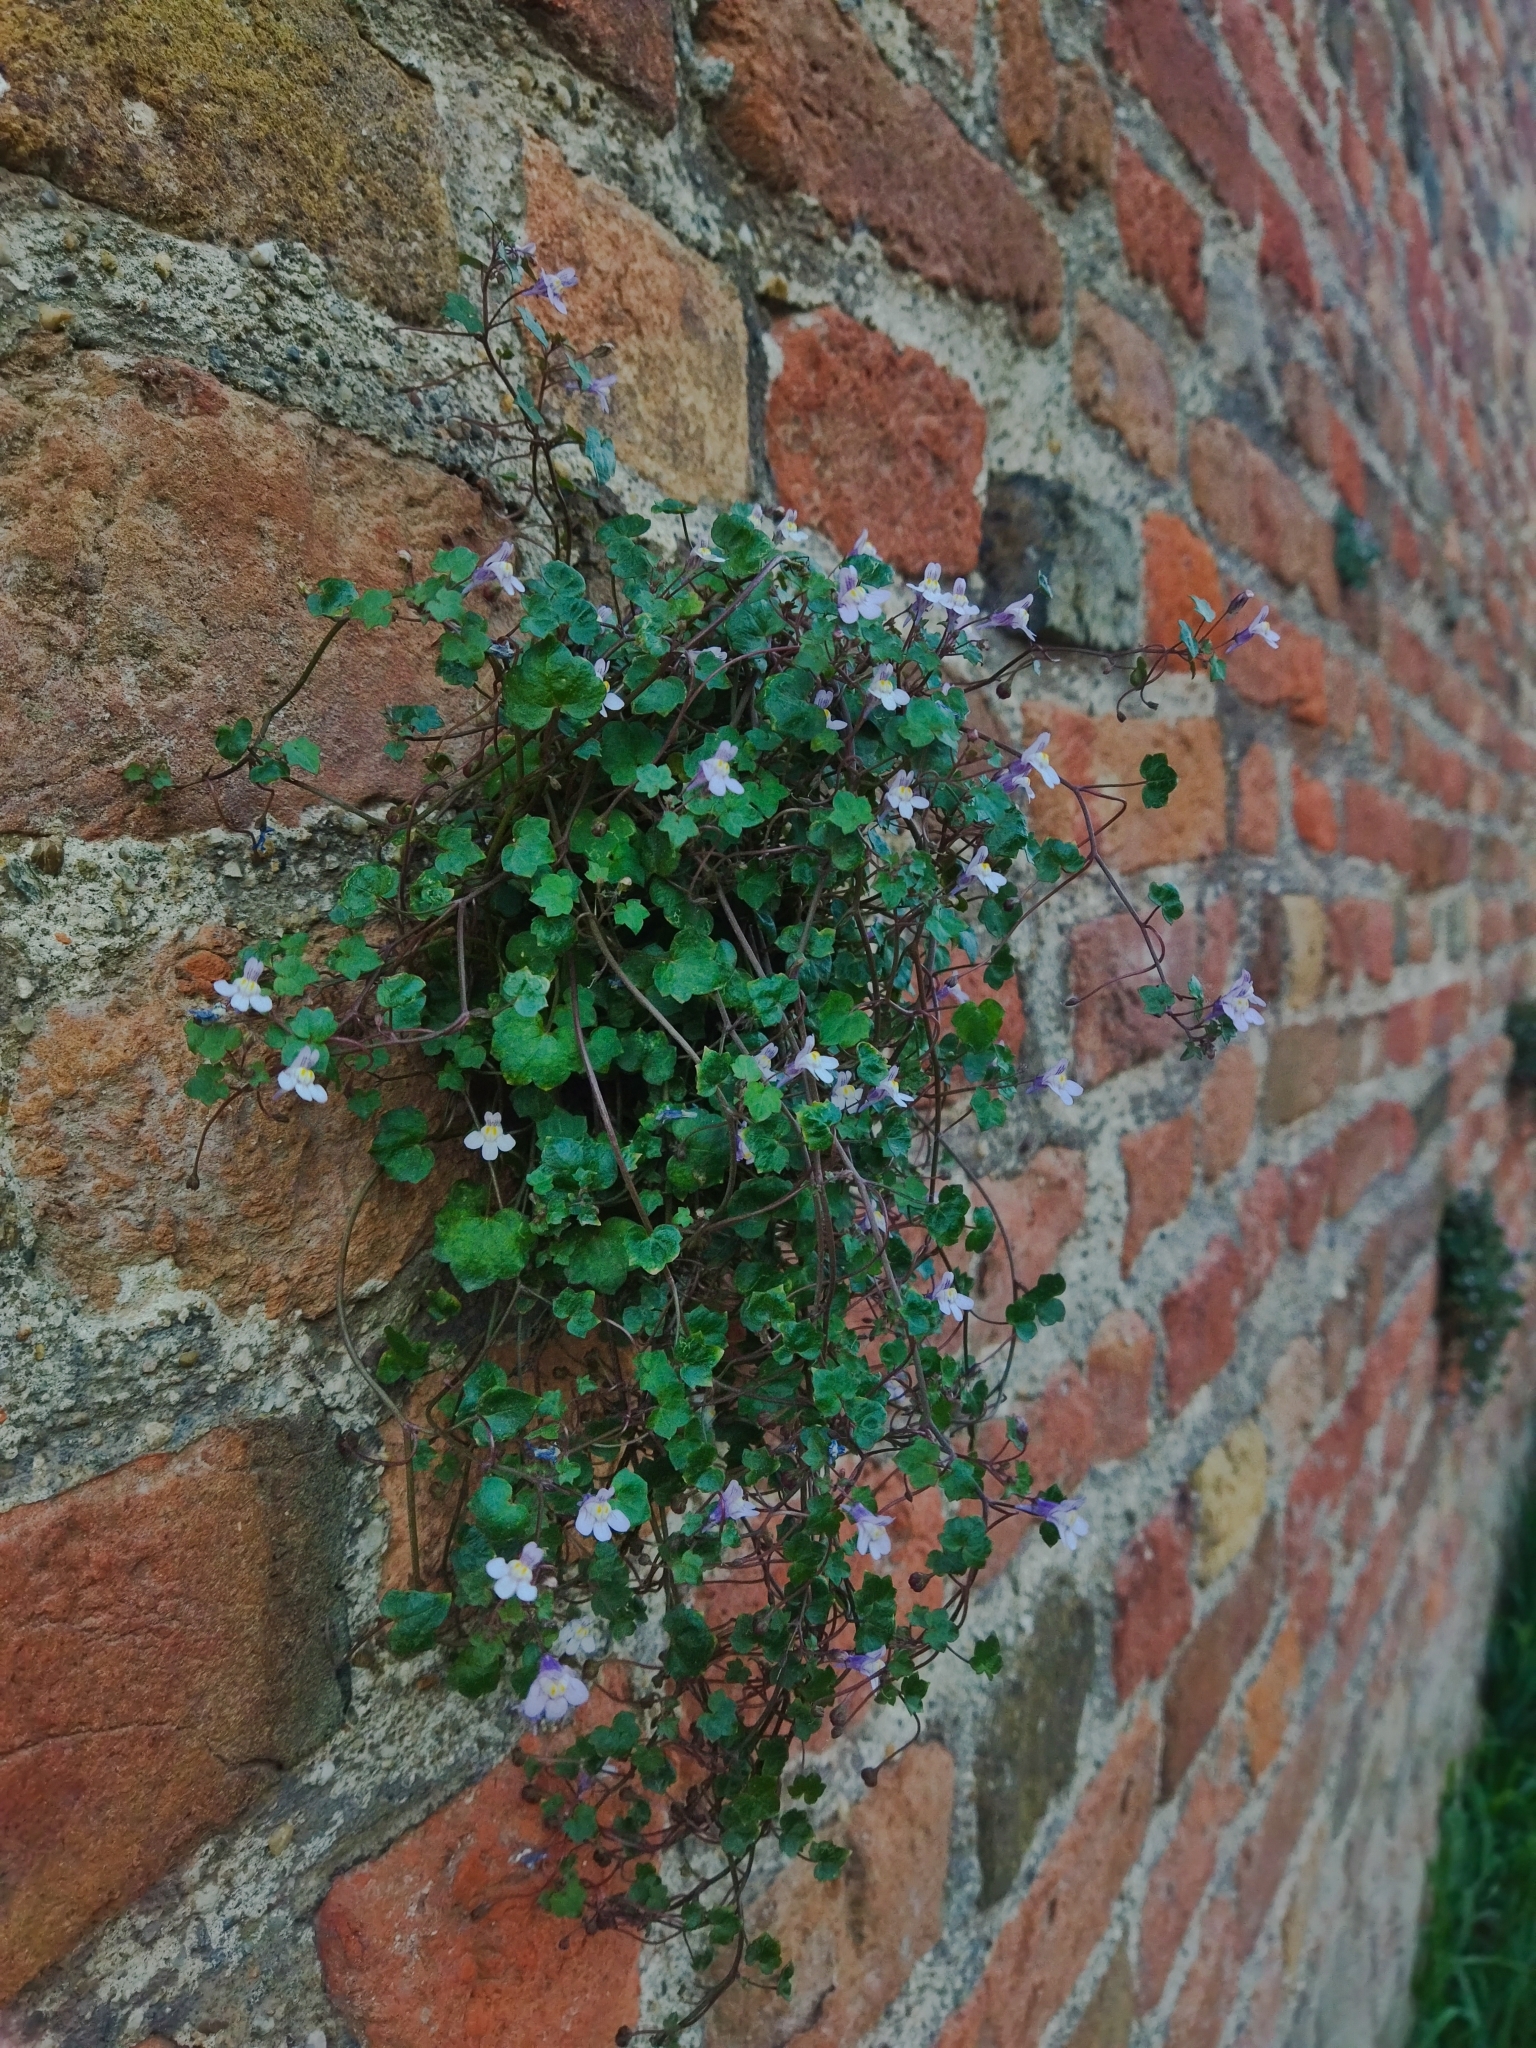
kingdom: Plantae
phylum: Tracheophyta
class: Magnoliopsida
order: Lamiales
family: Plantaginaceae
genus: Cymbalaria
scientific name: Cymbalaria muralis
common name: Ivy-leaved toadflax
